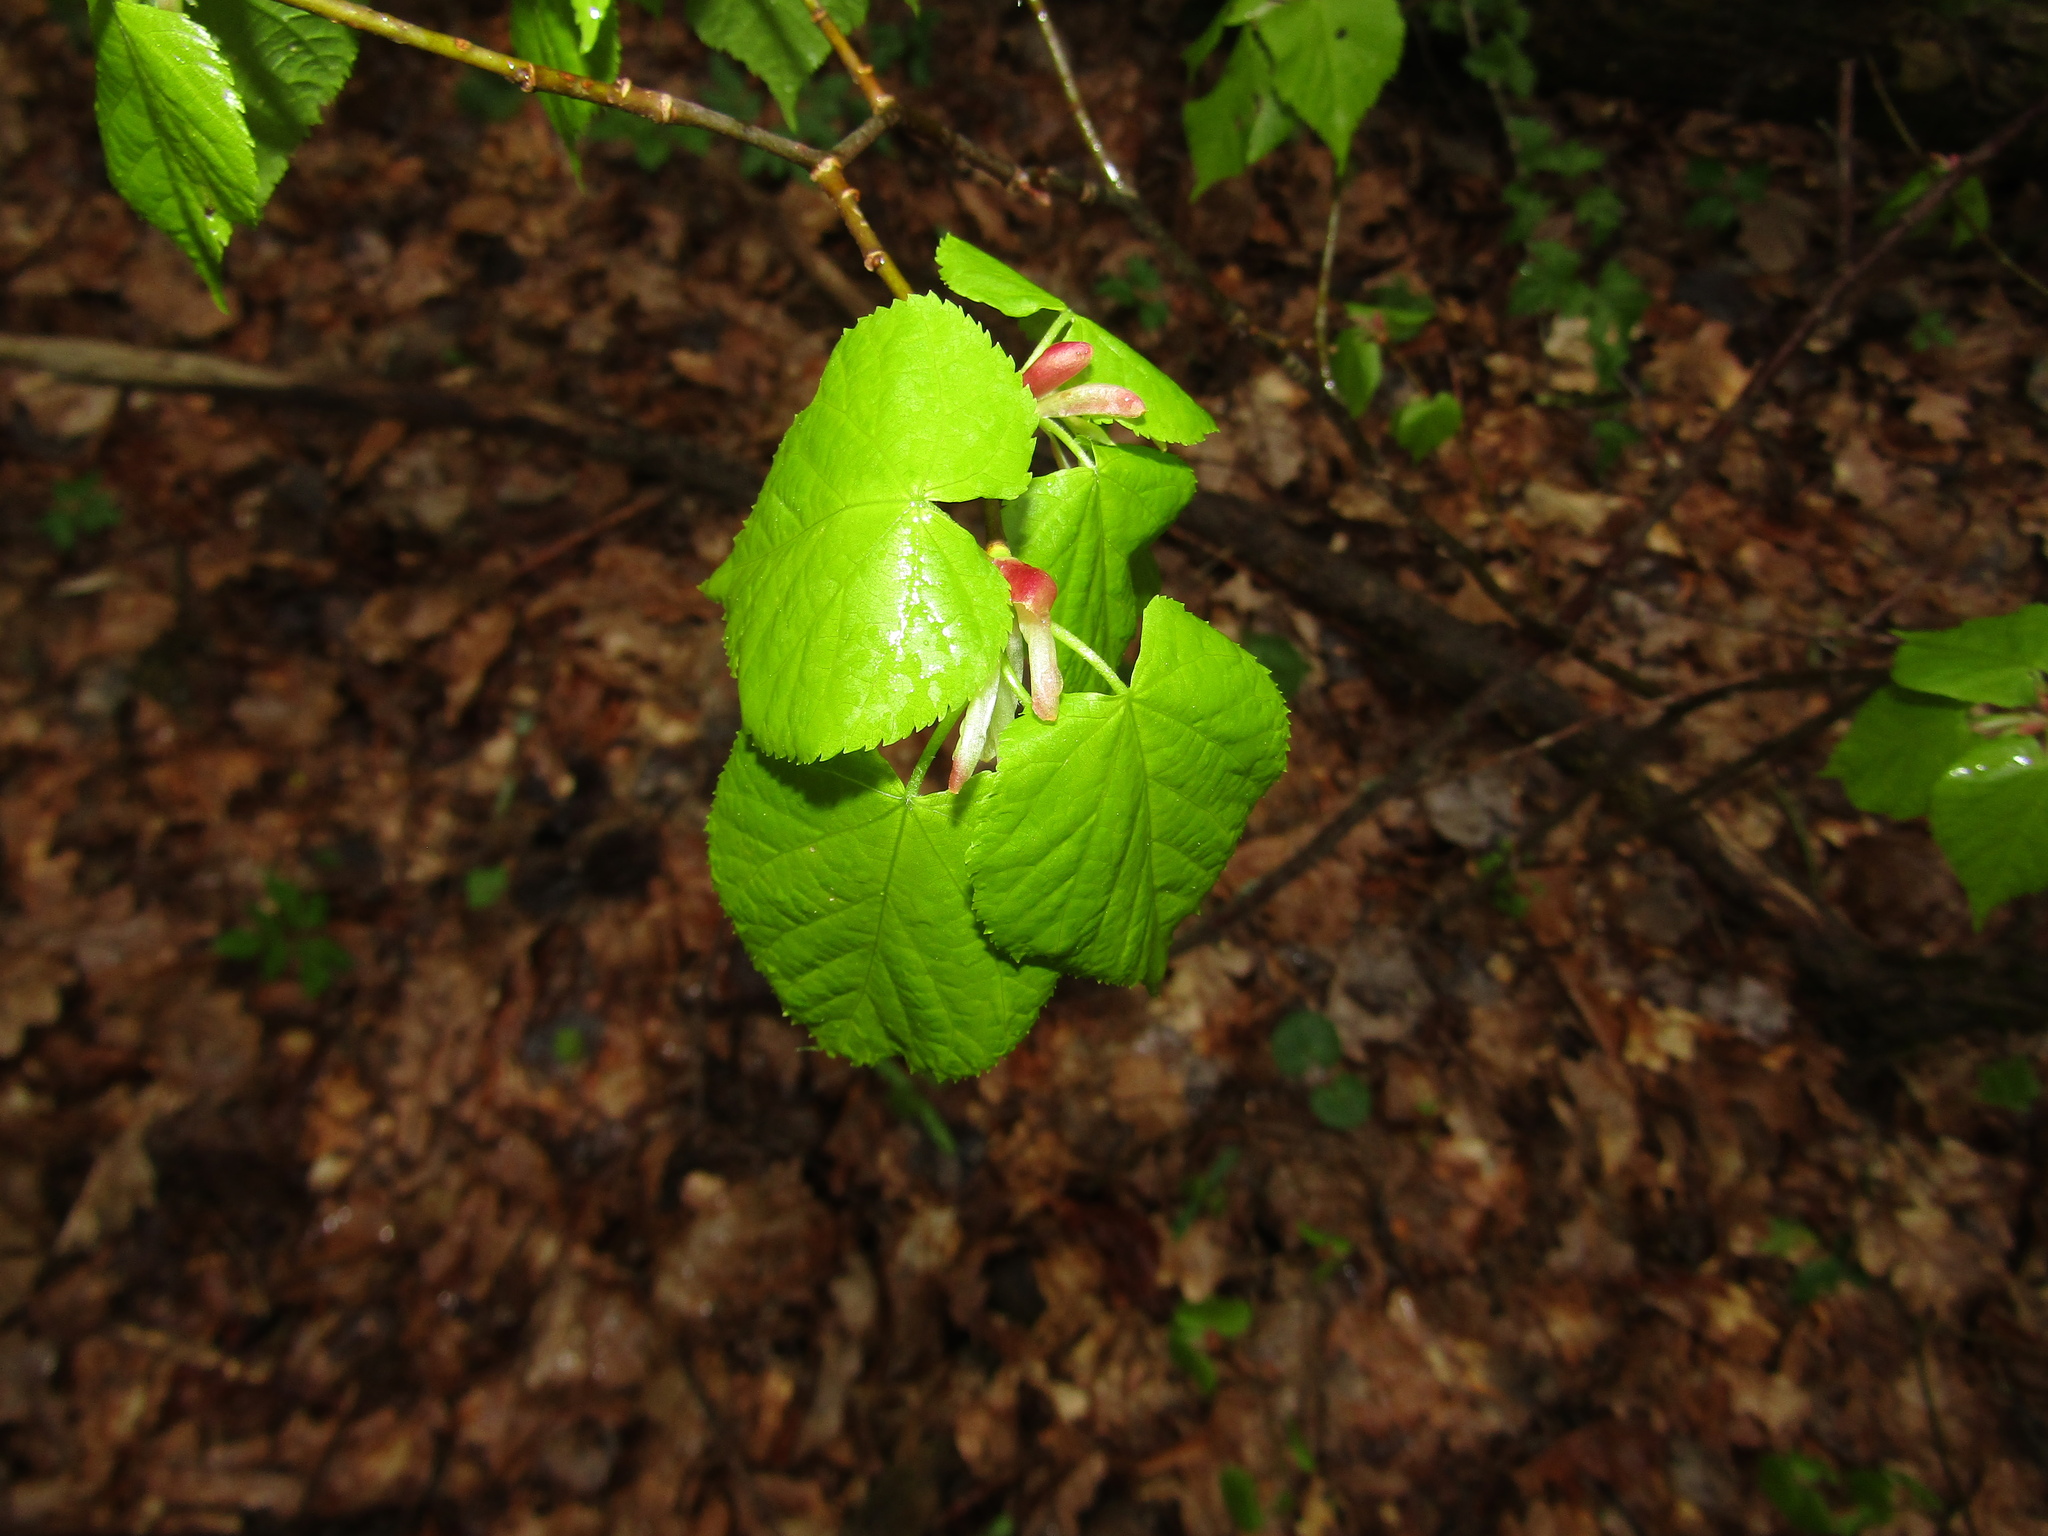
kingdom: Plantae
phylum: Tracheophyta
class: Magnoliopsida
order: Malvales
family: Malvaceae
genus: Tilia
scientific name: Tilia cordata
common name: Small-leaved lime
